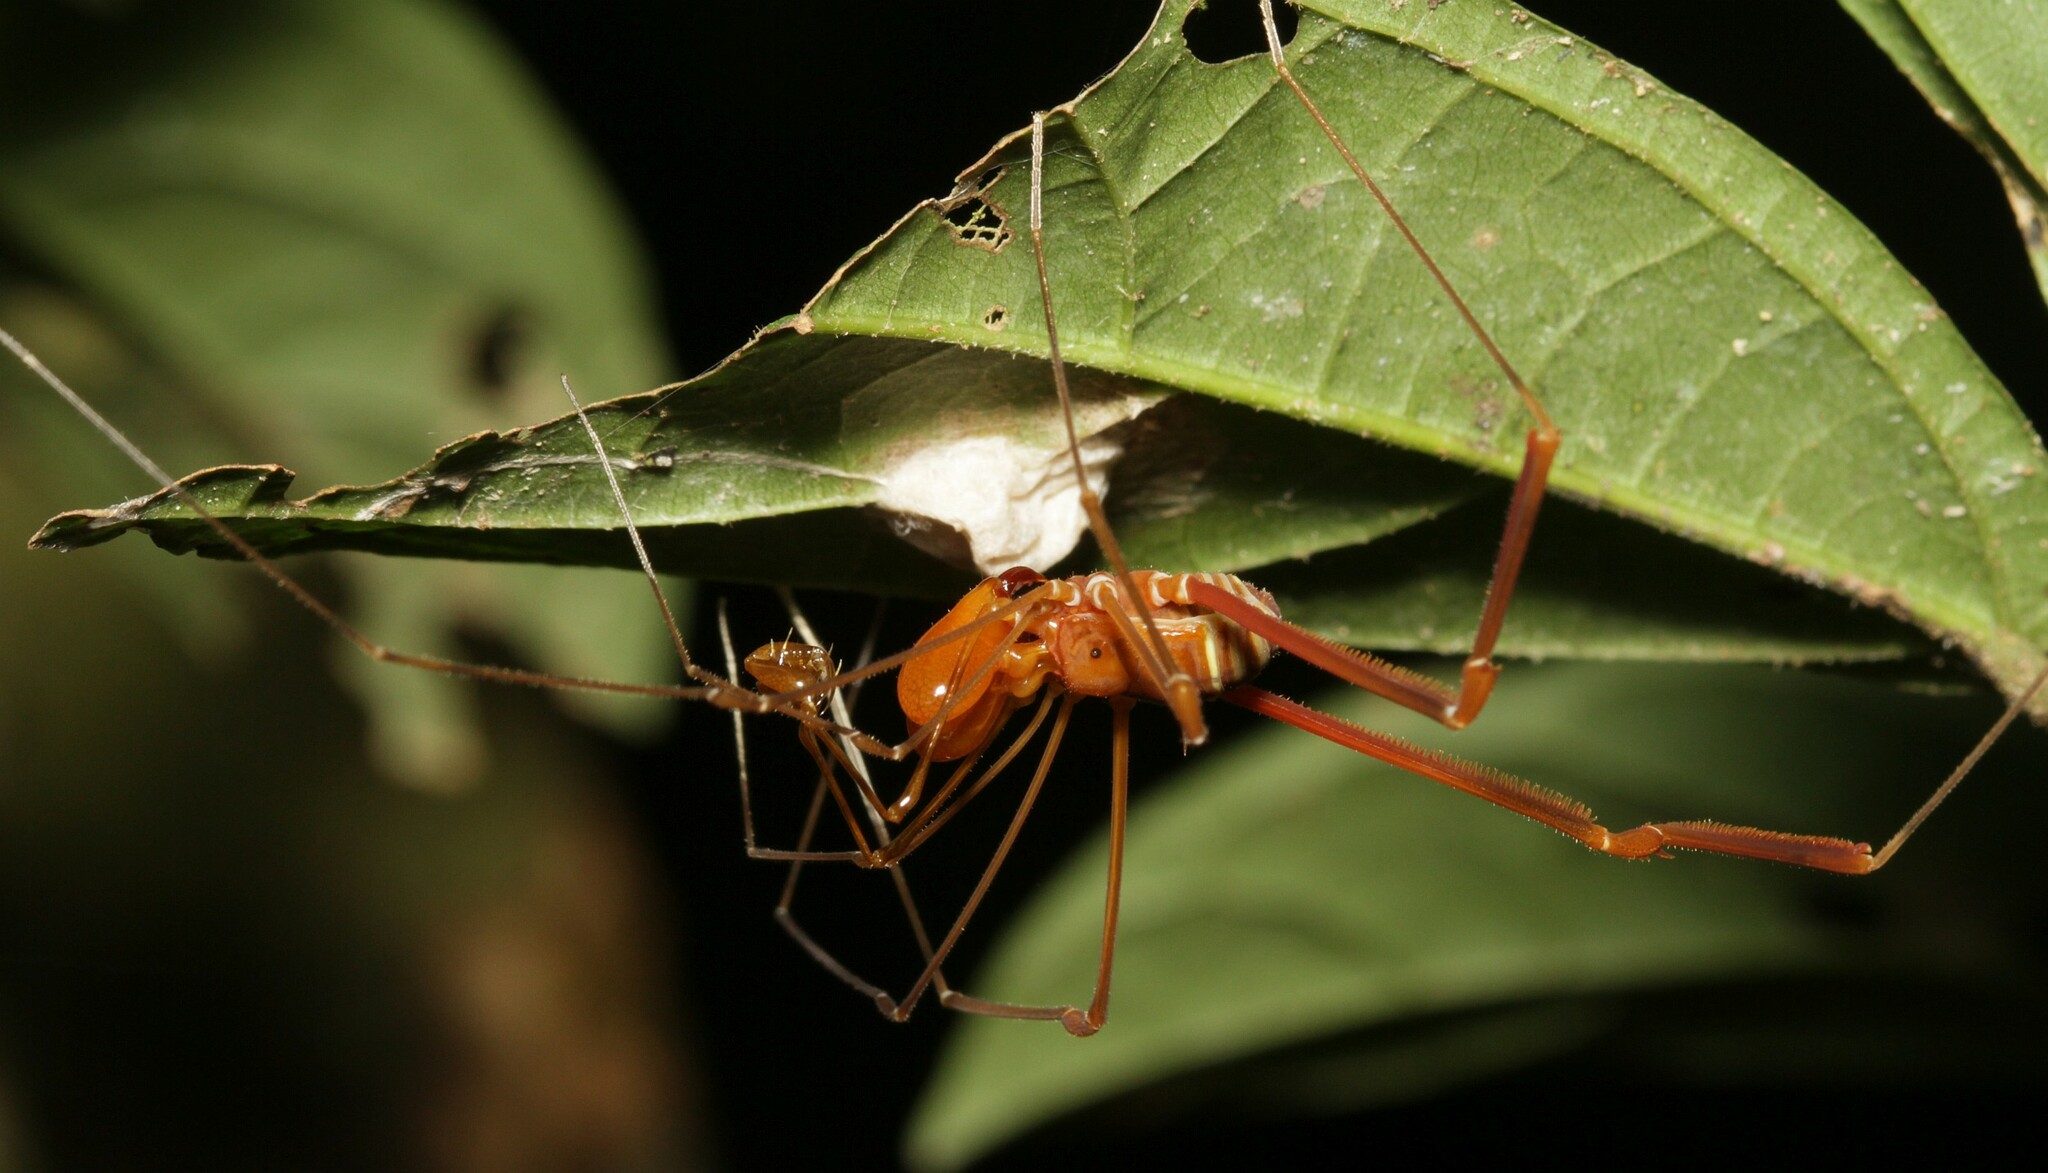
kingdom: Animalia
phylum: Arthropoda
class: Arachnida
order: Opiliones
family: Stygnidae
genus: Obidosus
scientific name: Obidosus boibumba
